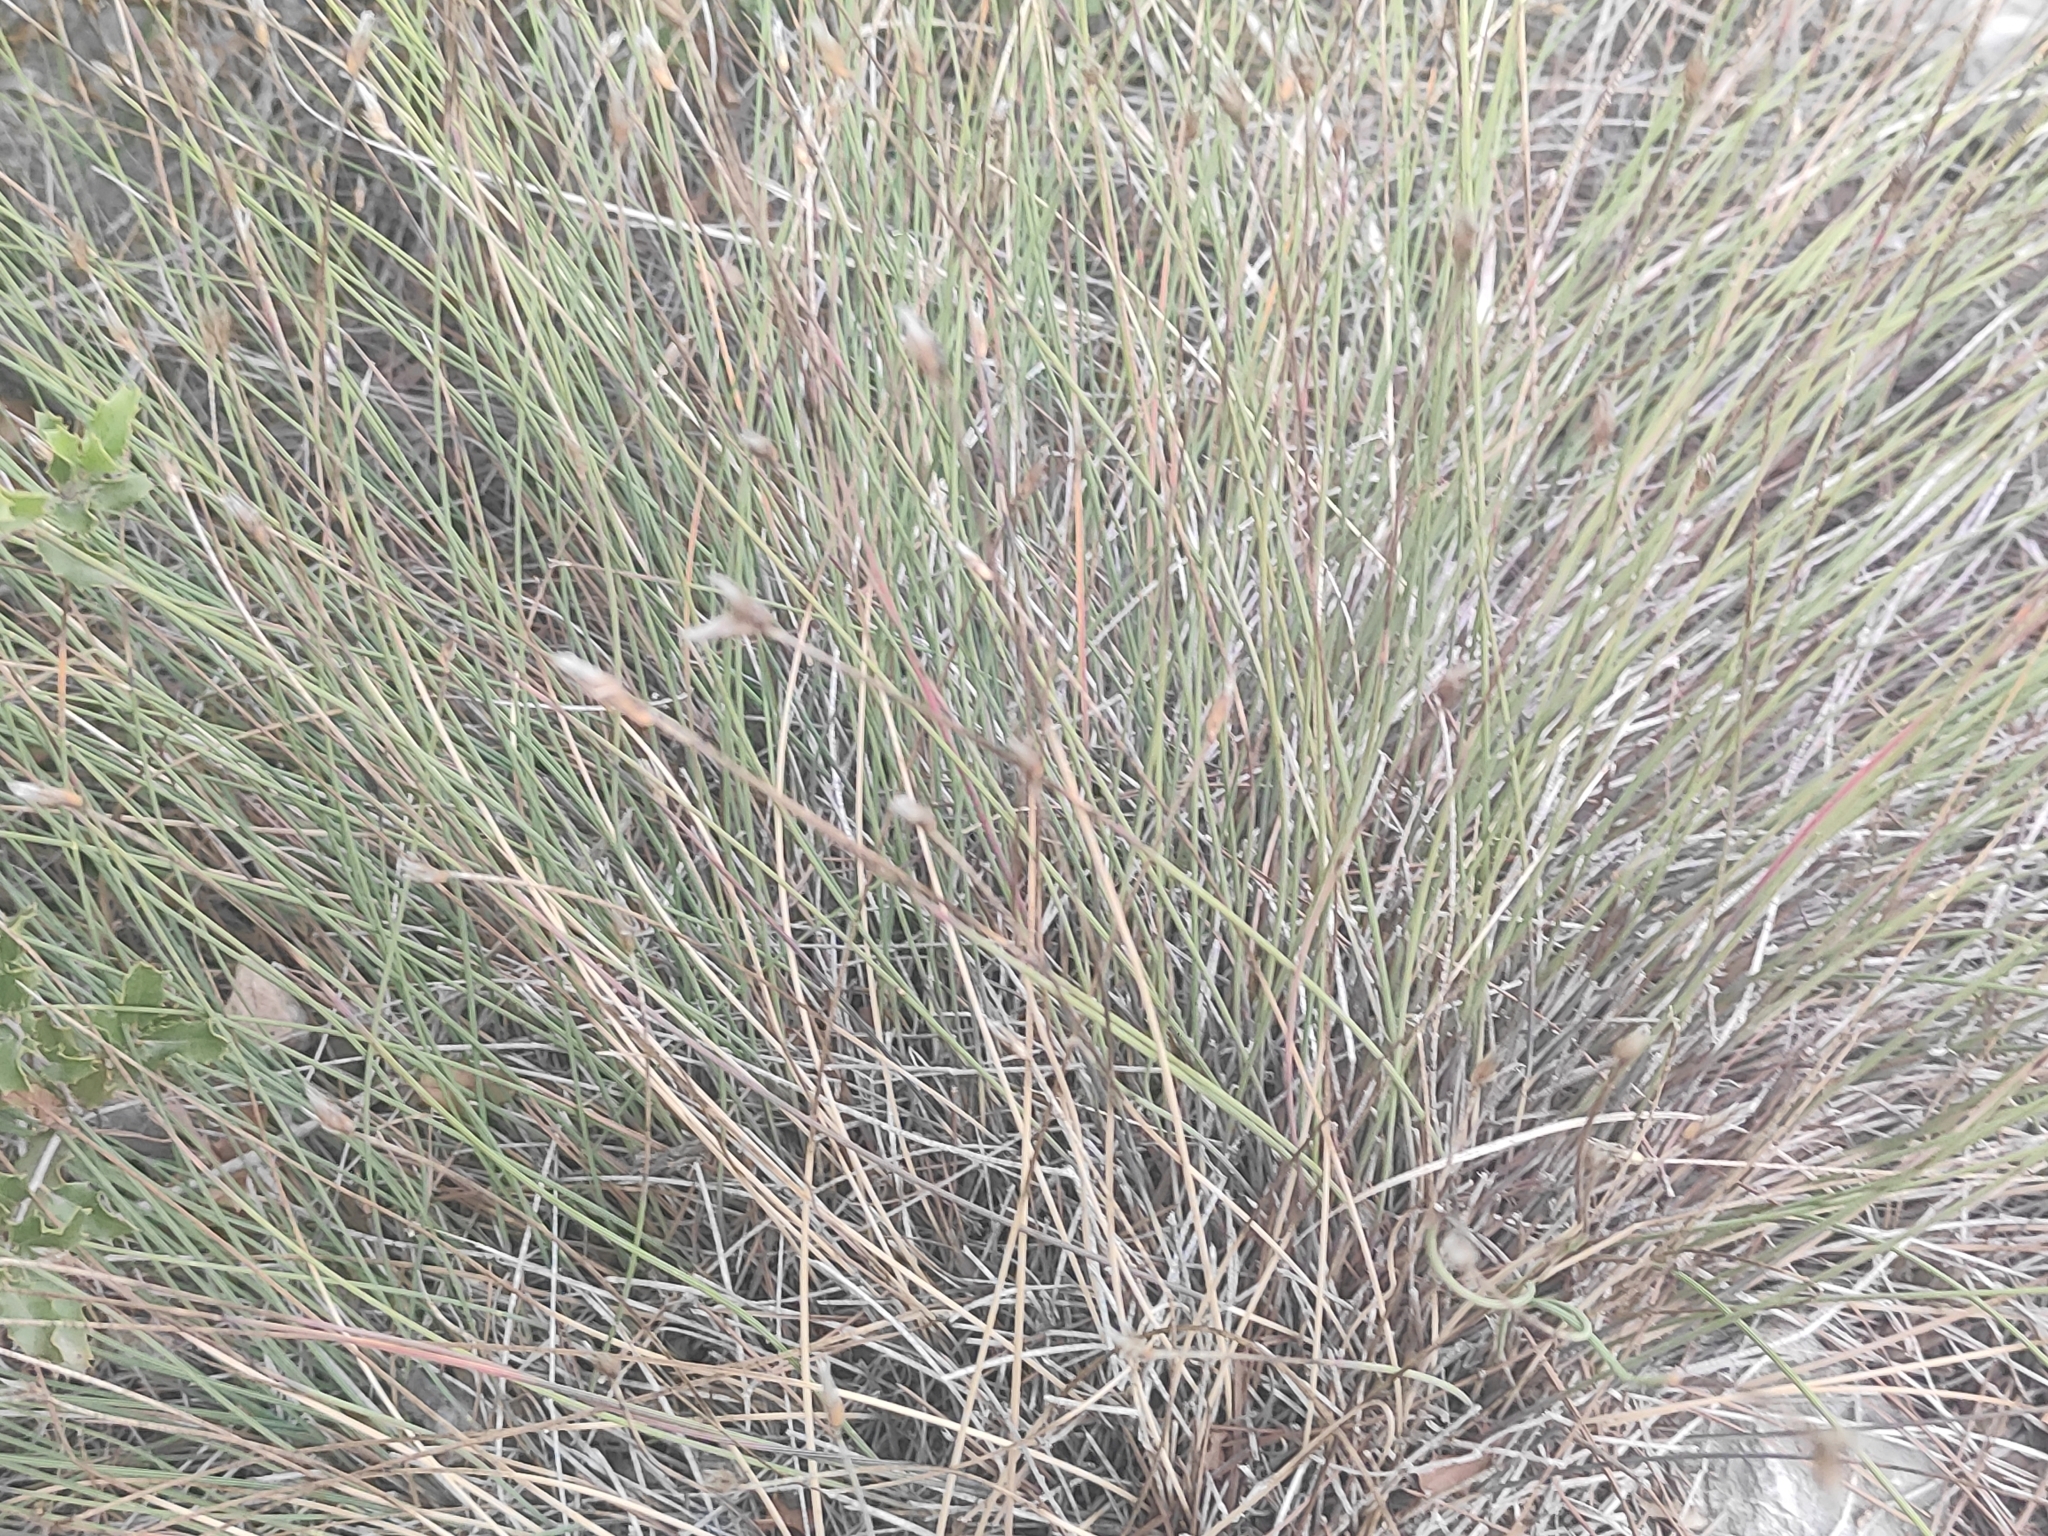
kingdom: Plantae
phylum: Tracheophyta
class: Liliopsida
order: Asparagales
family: Asparagaceae
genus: Aphyllanthes
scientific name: Aphyllanthes monspeliensis
